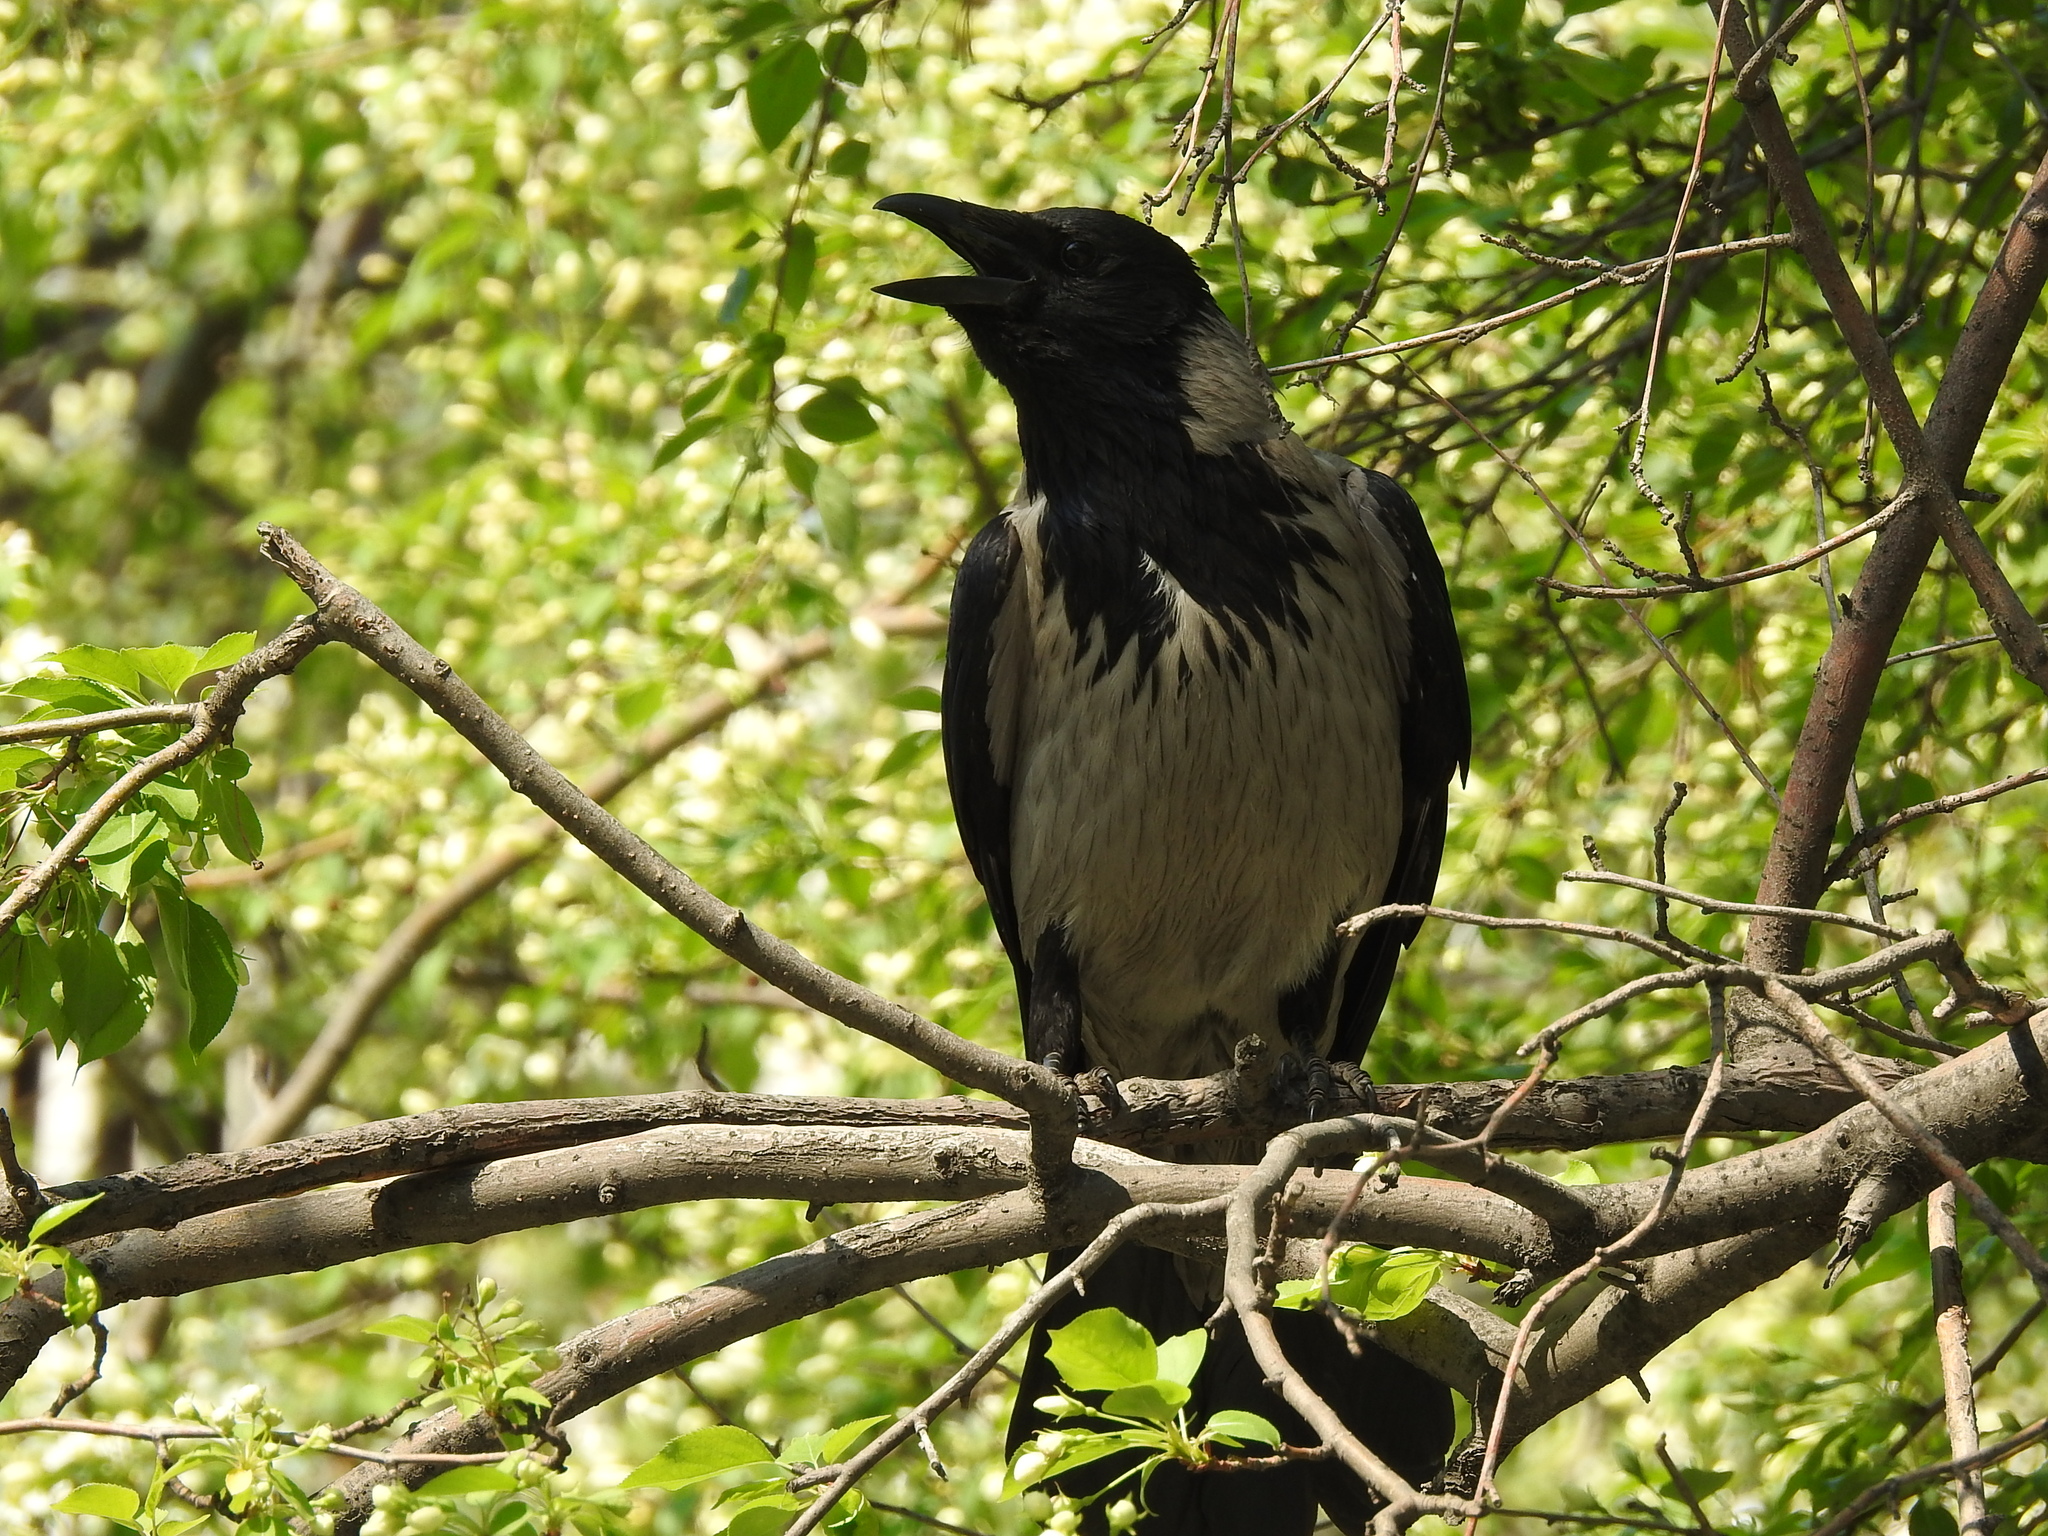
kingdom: Animalia
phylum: Chordata
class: Aves
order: Passeriformes
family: Corvidae
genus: Corvus
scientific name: Corvus cornix
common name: Hooded crow
